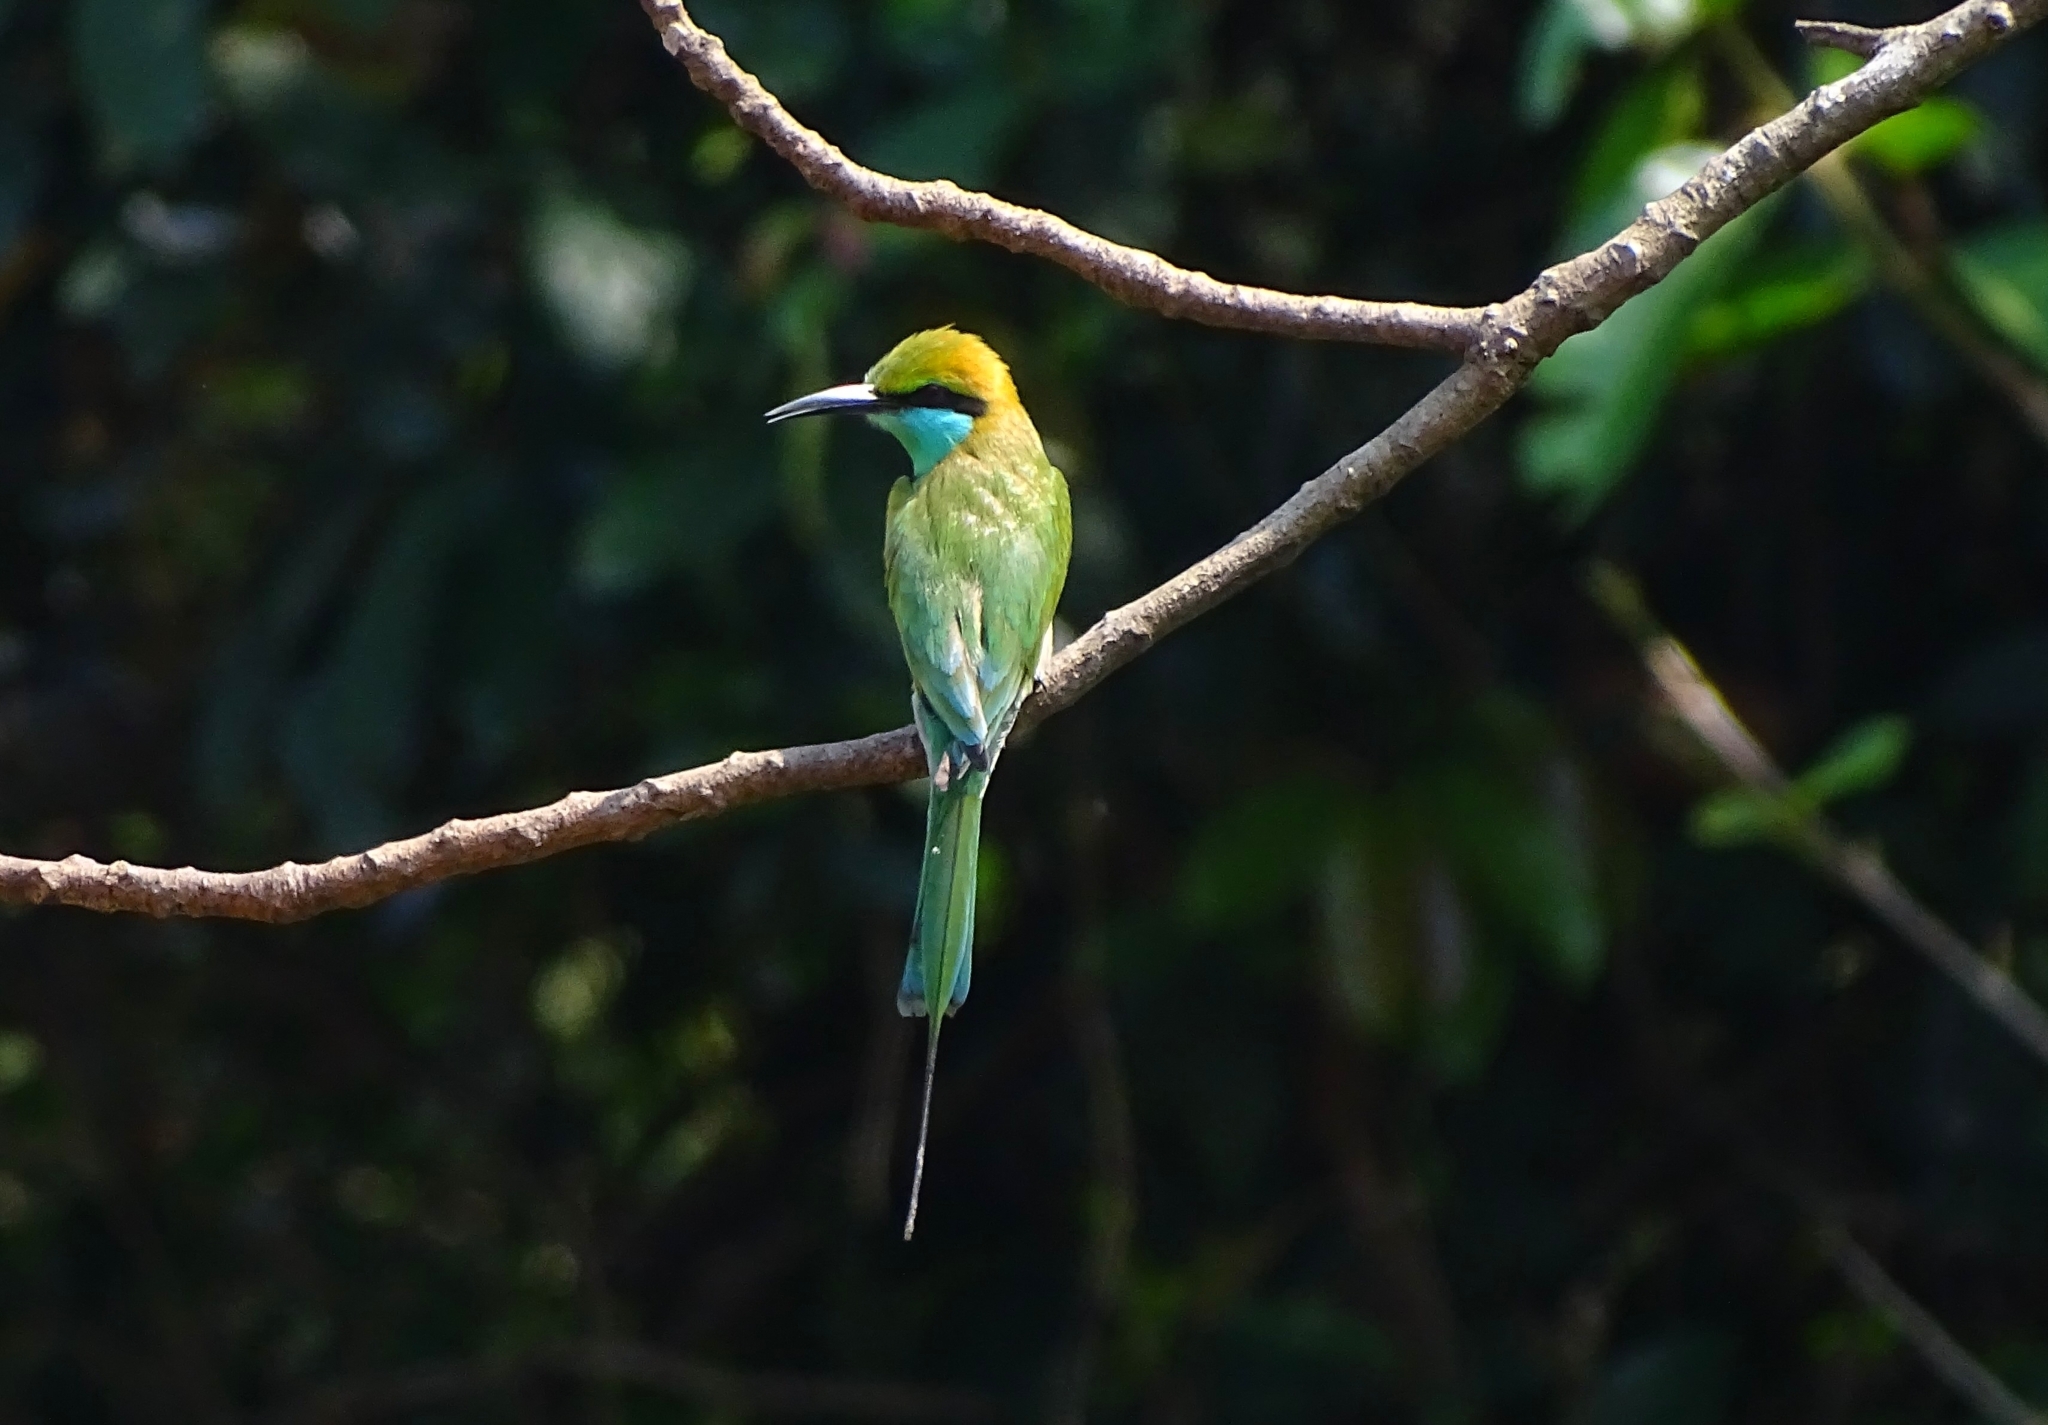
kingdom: Animalia
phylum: Chordata
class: Aves
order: Coraciiformes
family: Meropidae
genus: Merops
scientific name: Merops orientalis
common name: Green bee-eater
